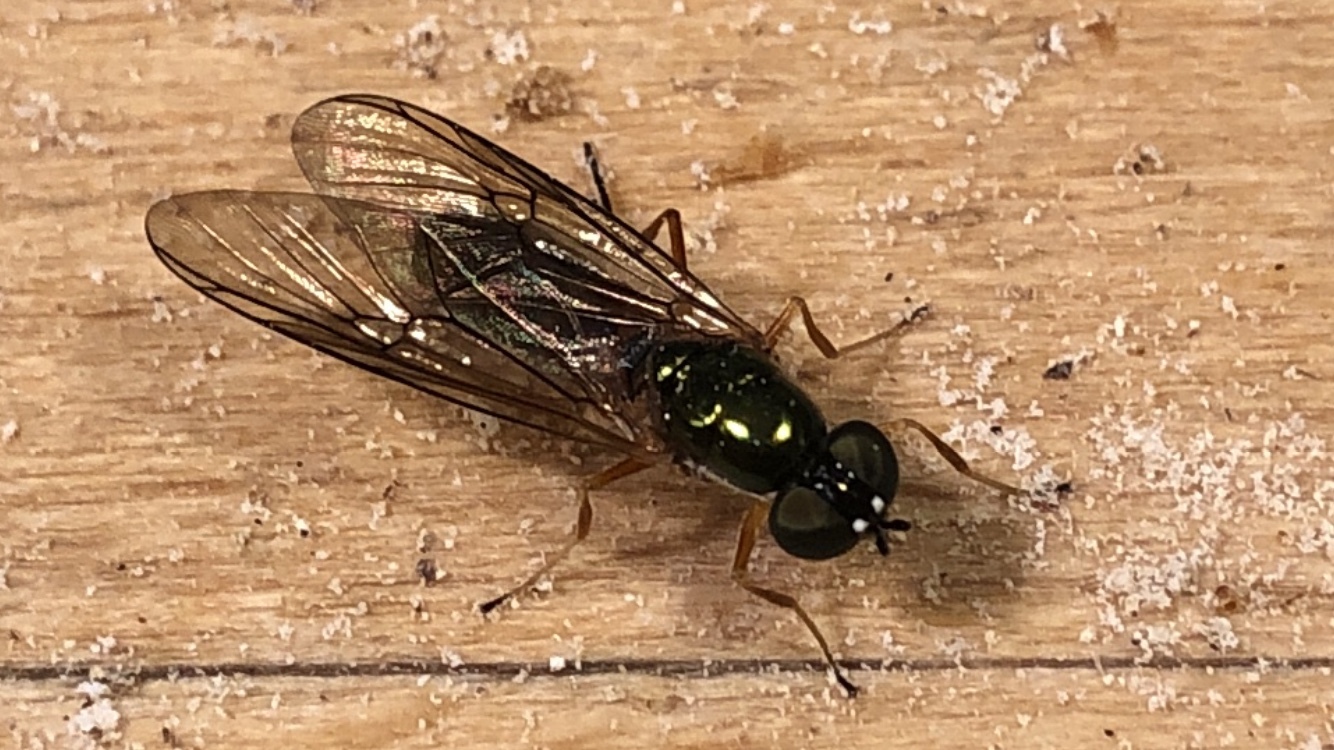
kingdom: Animalia
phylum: Arthropoda
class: Insecta
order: Diptera
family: Stratiomyidae
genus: Sargus
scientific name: Sargus bipunctatus
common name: Twin-spot centurion
